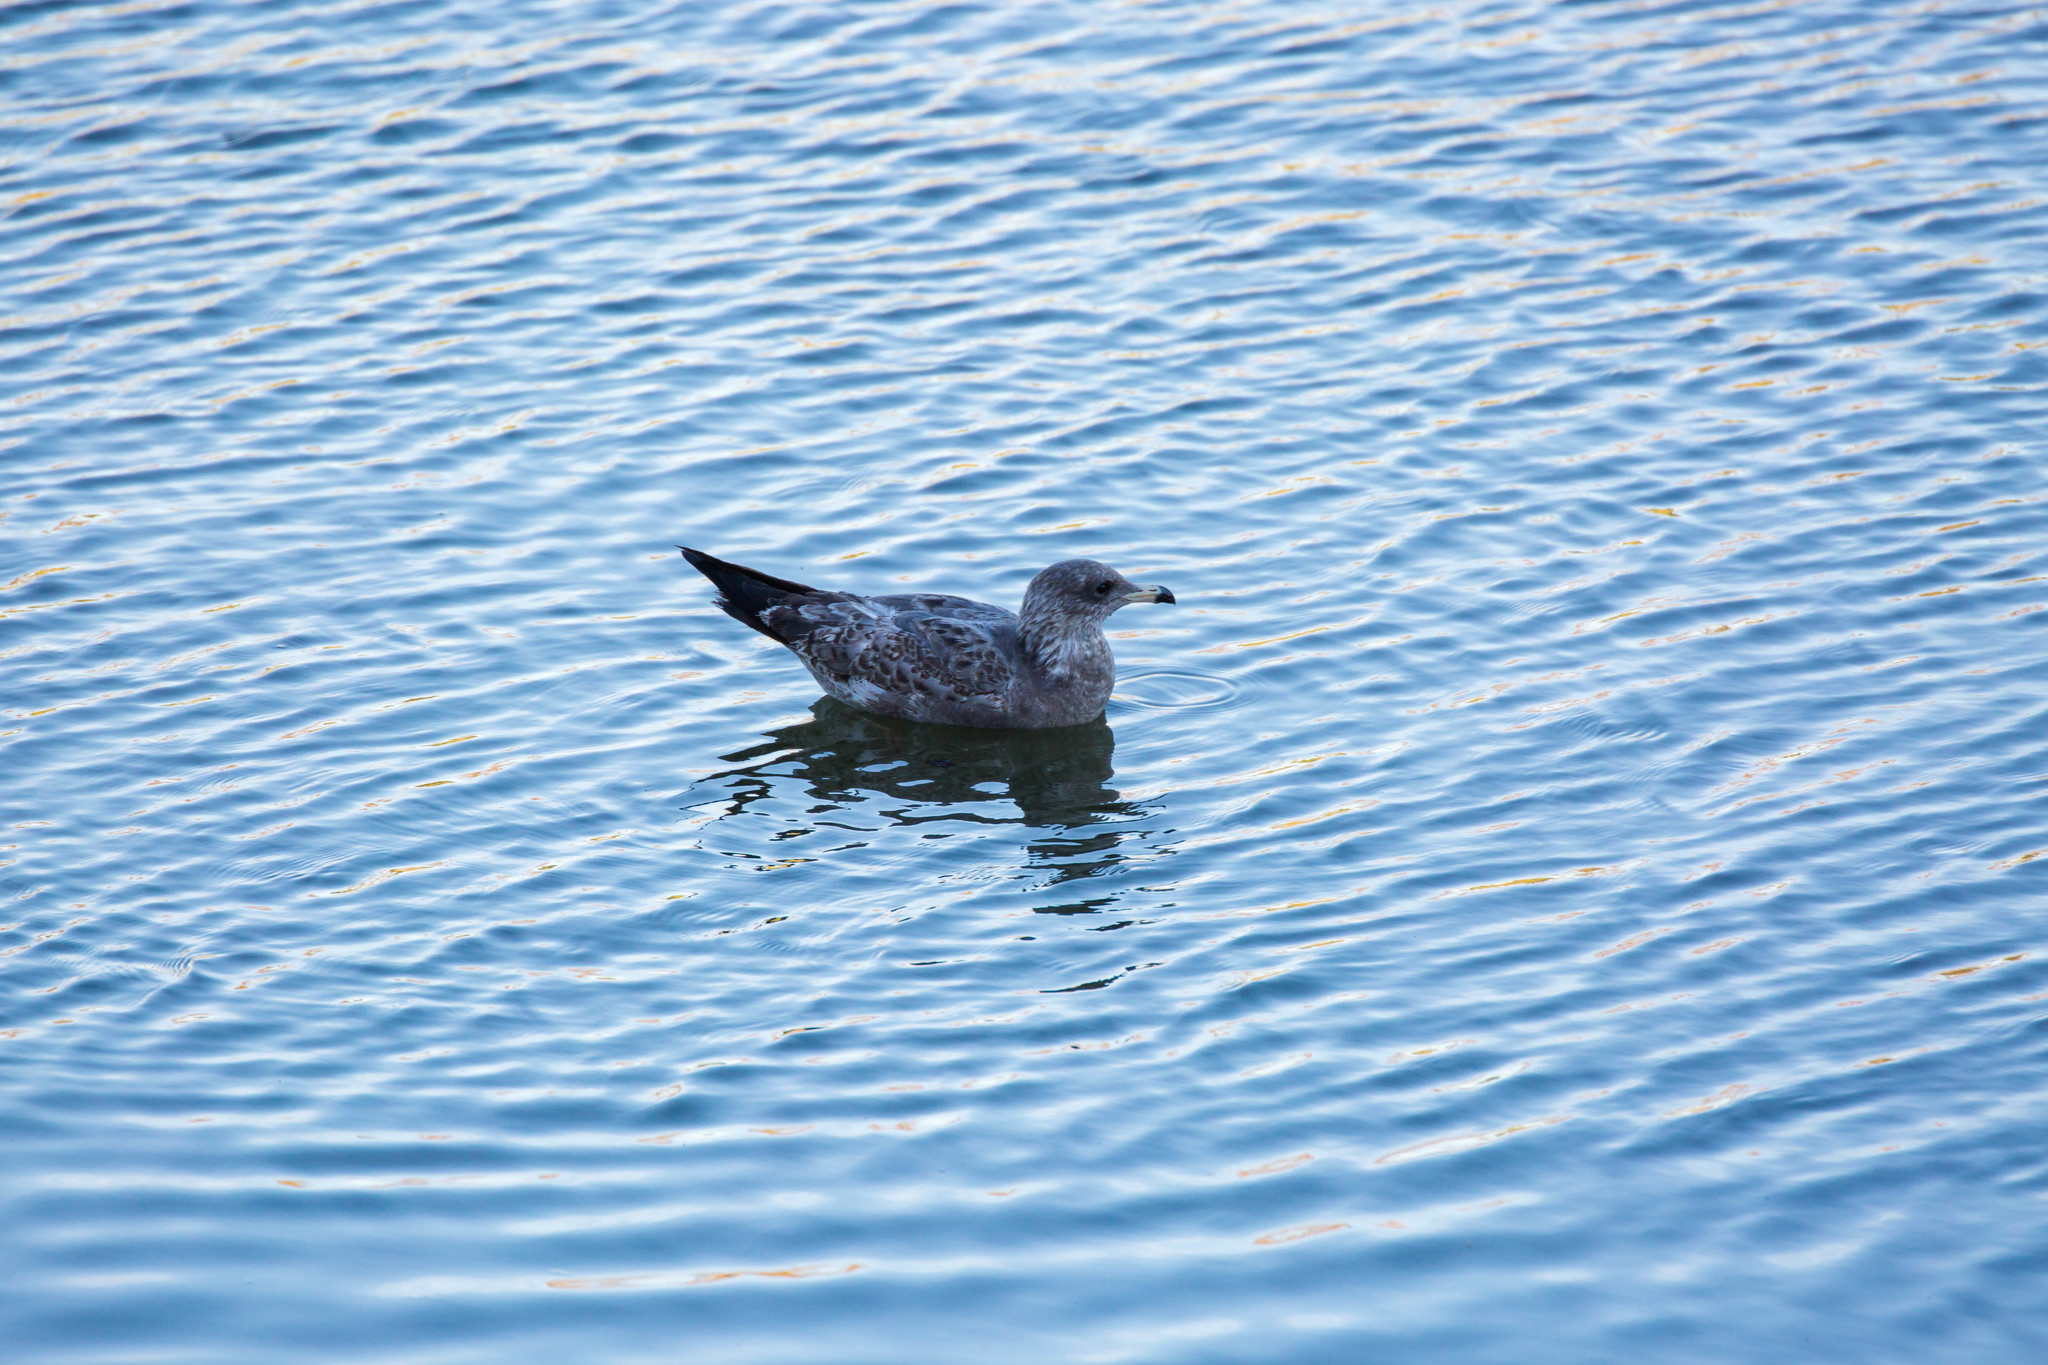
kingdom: Animalia
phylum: Chordata
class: Aves
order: Charadriiformes
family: Laridae
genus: Larus
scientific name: Larus californicus
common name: California gull
